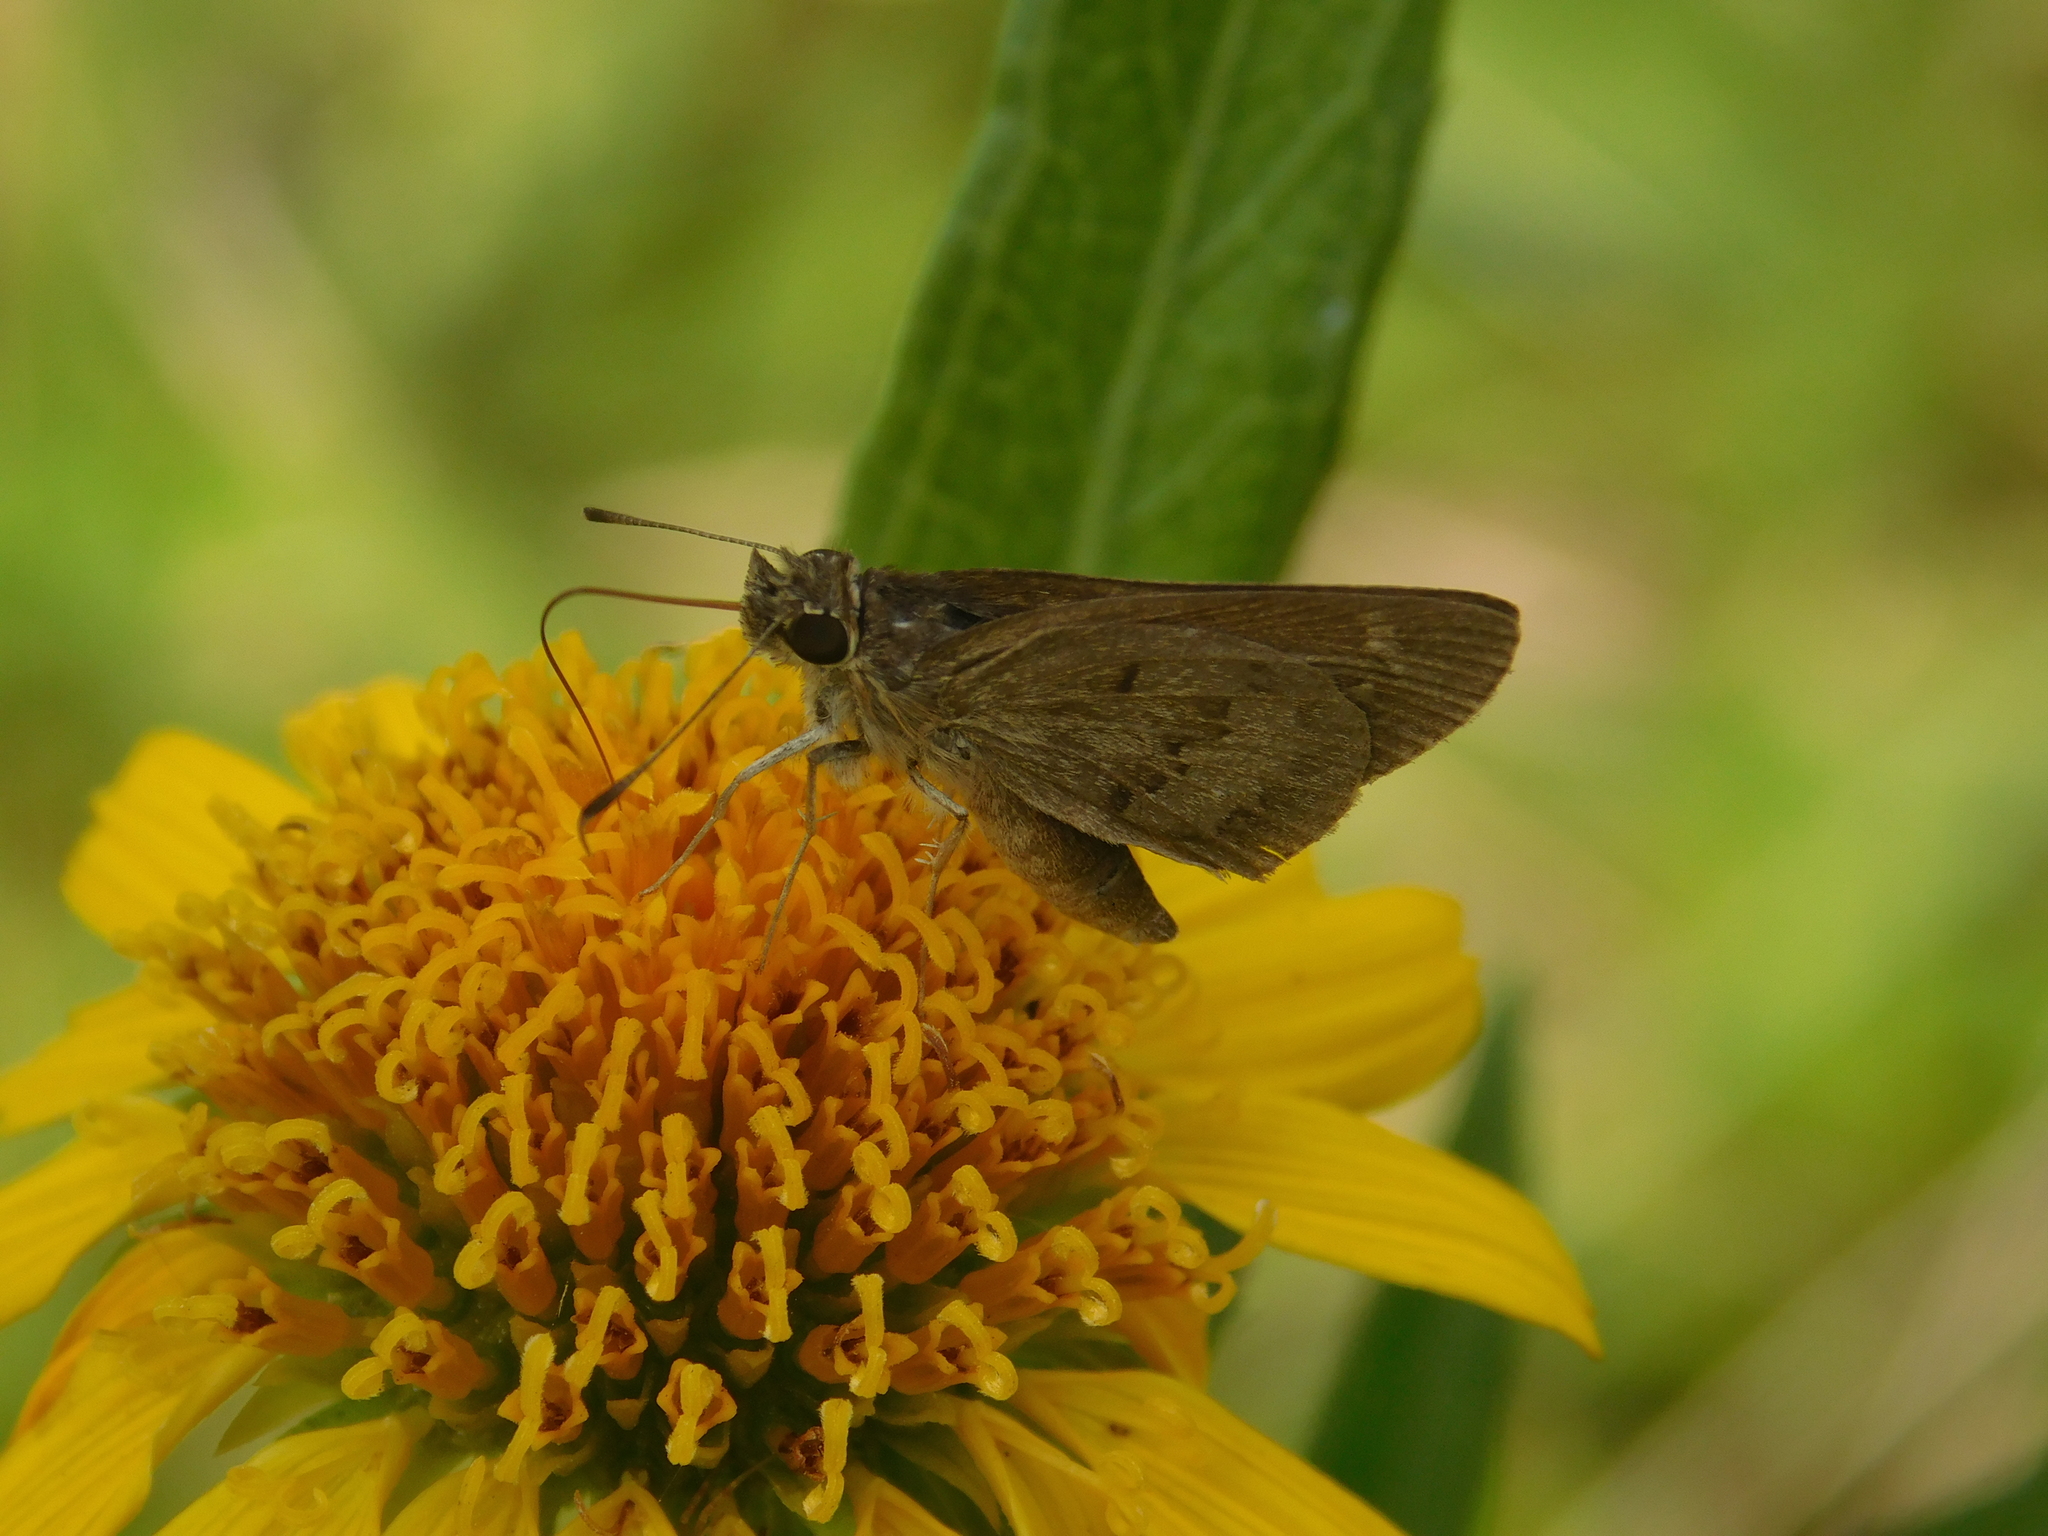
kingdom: Animalia
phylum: Arthropoda
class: Insecta
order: Lepidoptera
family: Hesperiidae
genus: Cymaenes
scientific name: Cymaenes gisca
